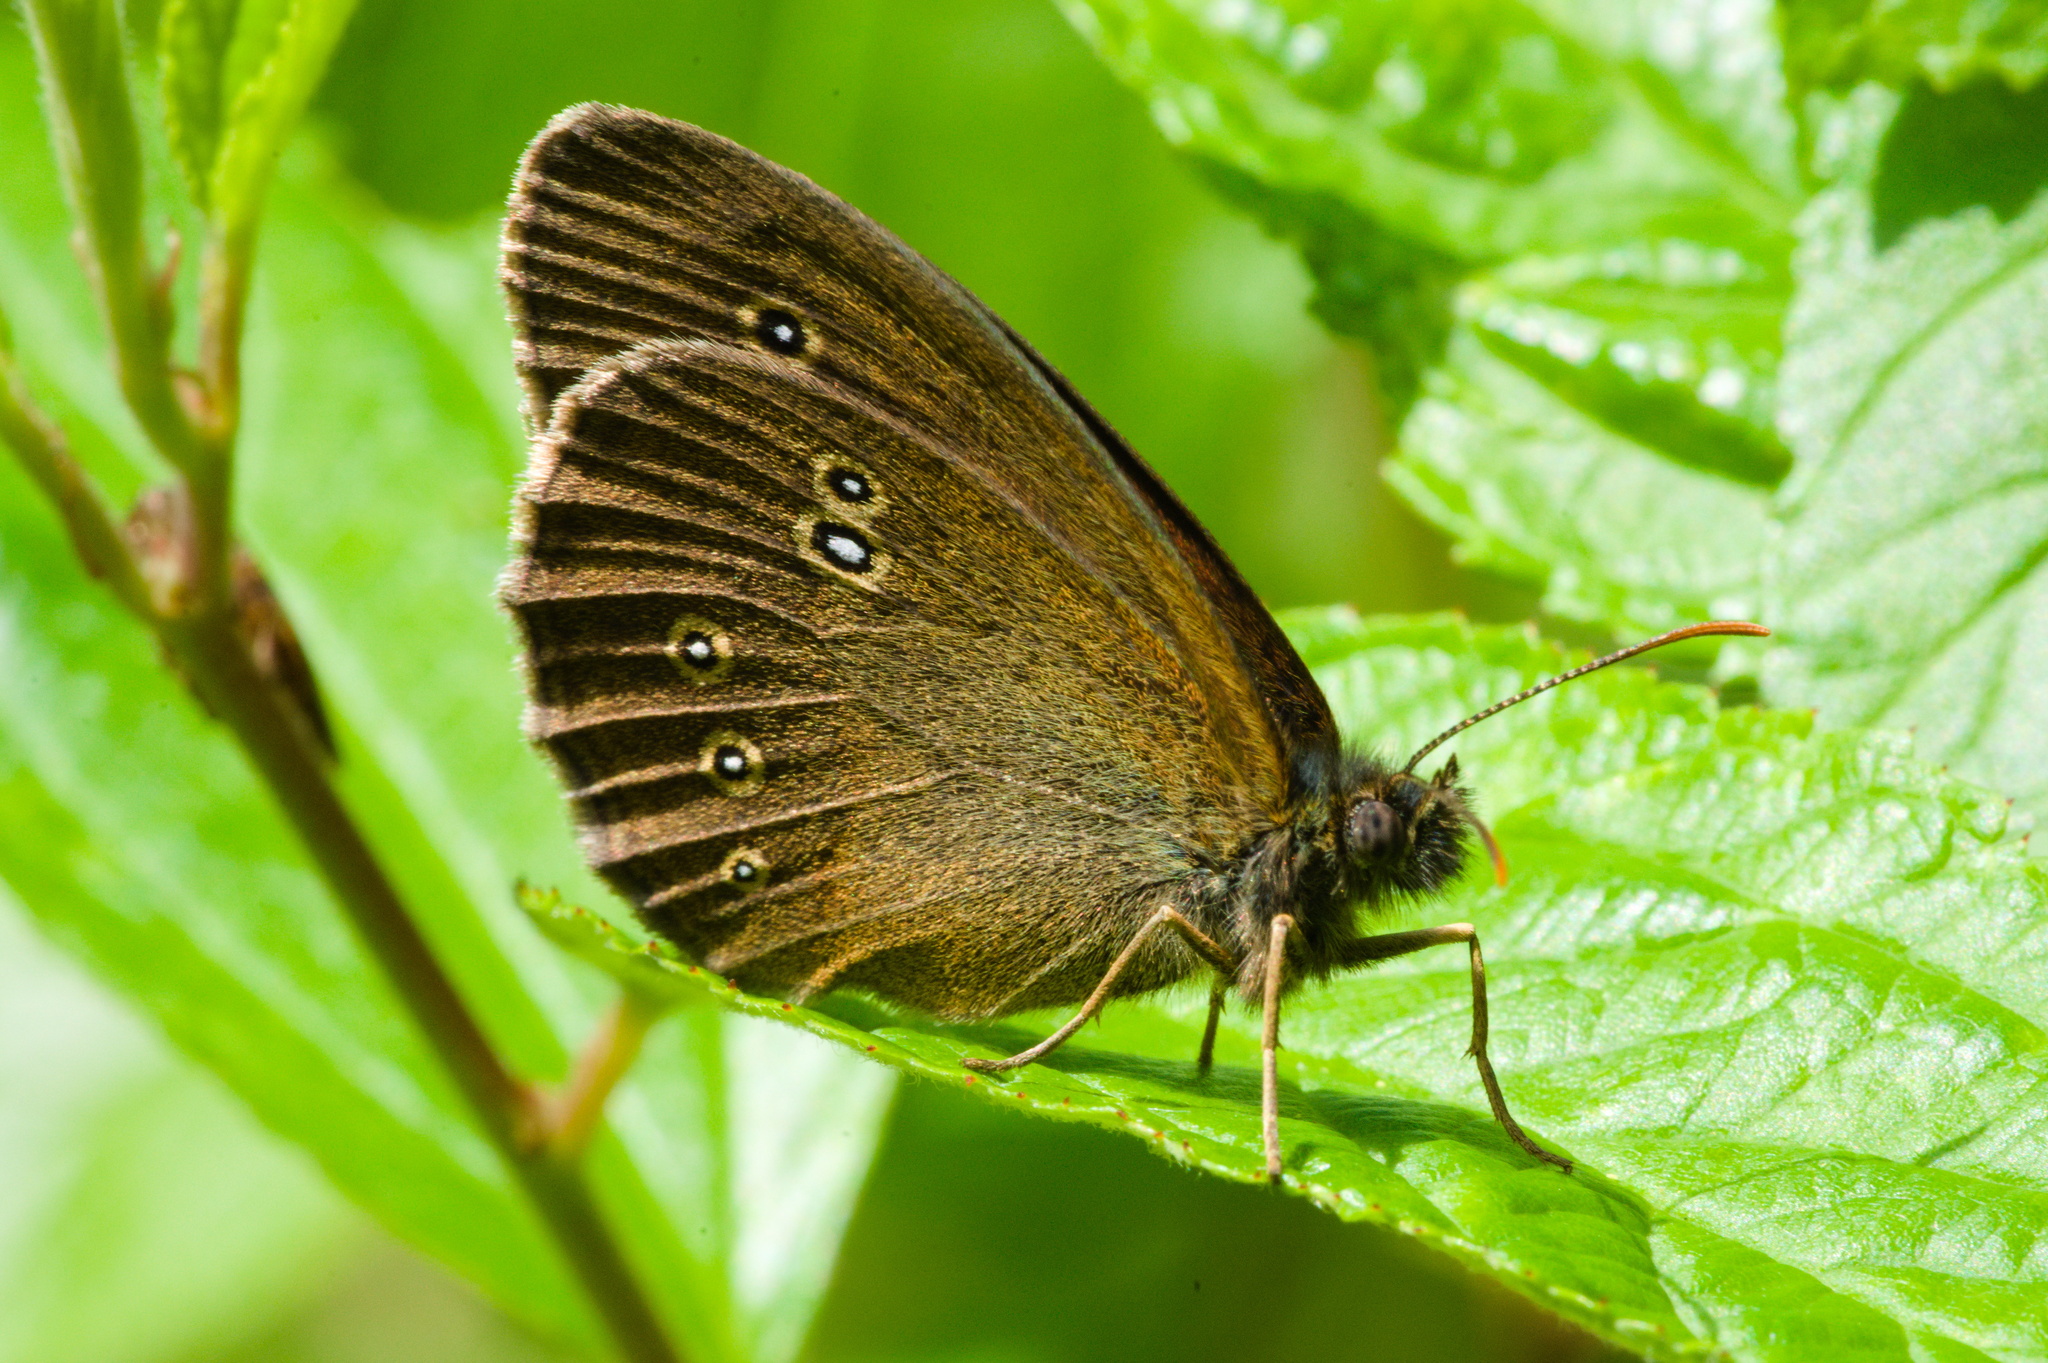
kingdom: Animalia
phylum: Arthropoda
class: Insecta
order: Lepidoptera
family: Nymphalidae
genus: Aphantopus
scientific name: Aphantopus hyperantus
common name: Ringlet
